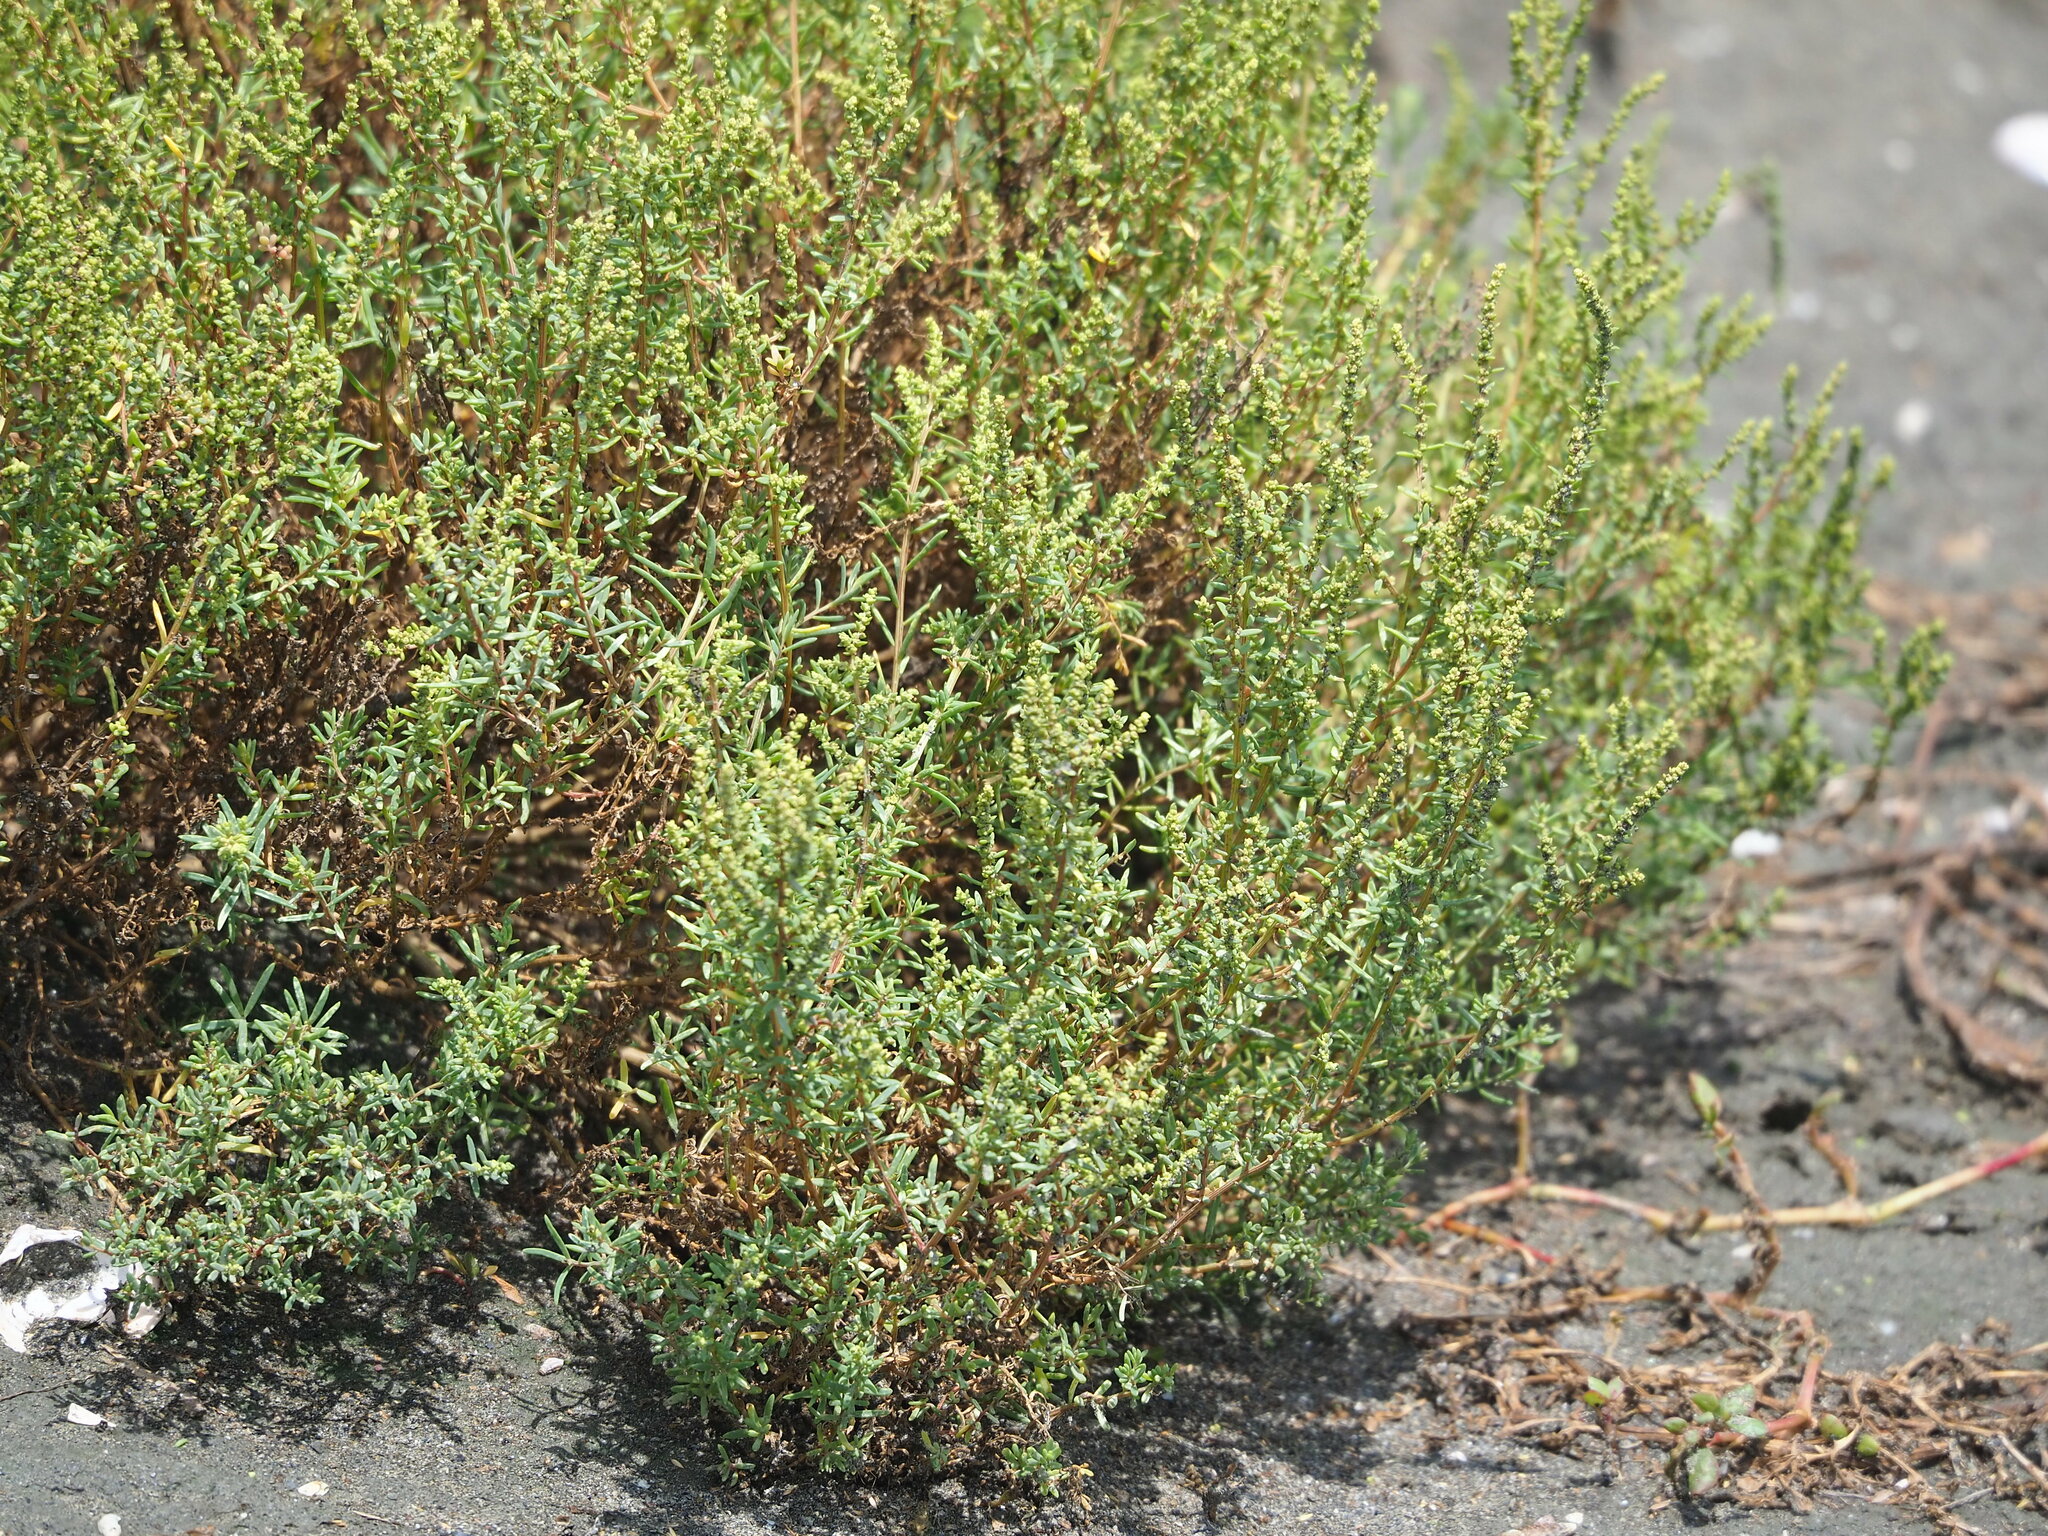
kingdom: Plantae
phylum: Tracheophyta
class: Magnoliopsida
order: Caryophyllales
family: Amaranthaceae
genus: Suaeda
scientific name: Suaeda maritima
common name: Annual sea-blite
